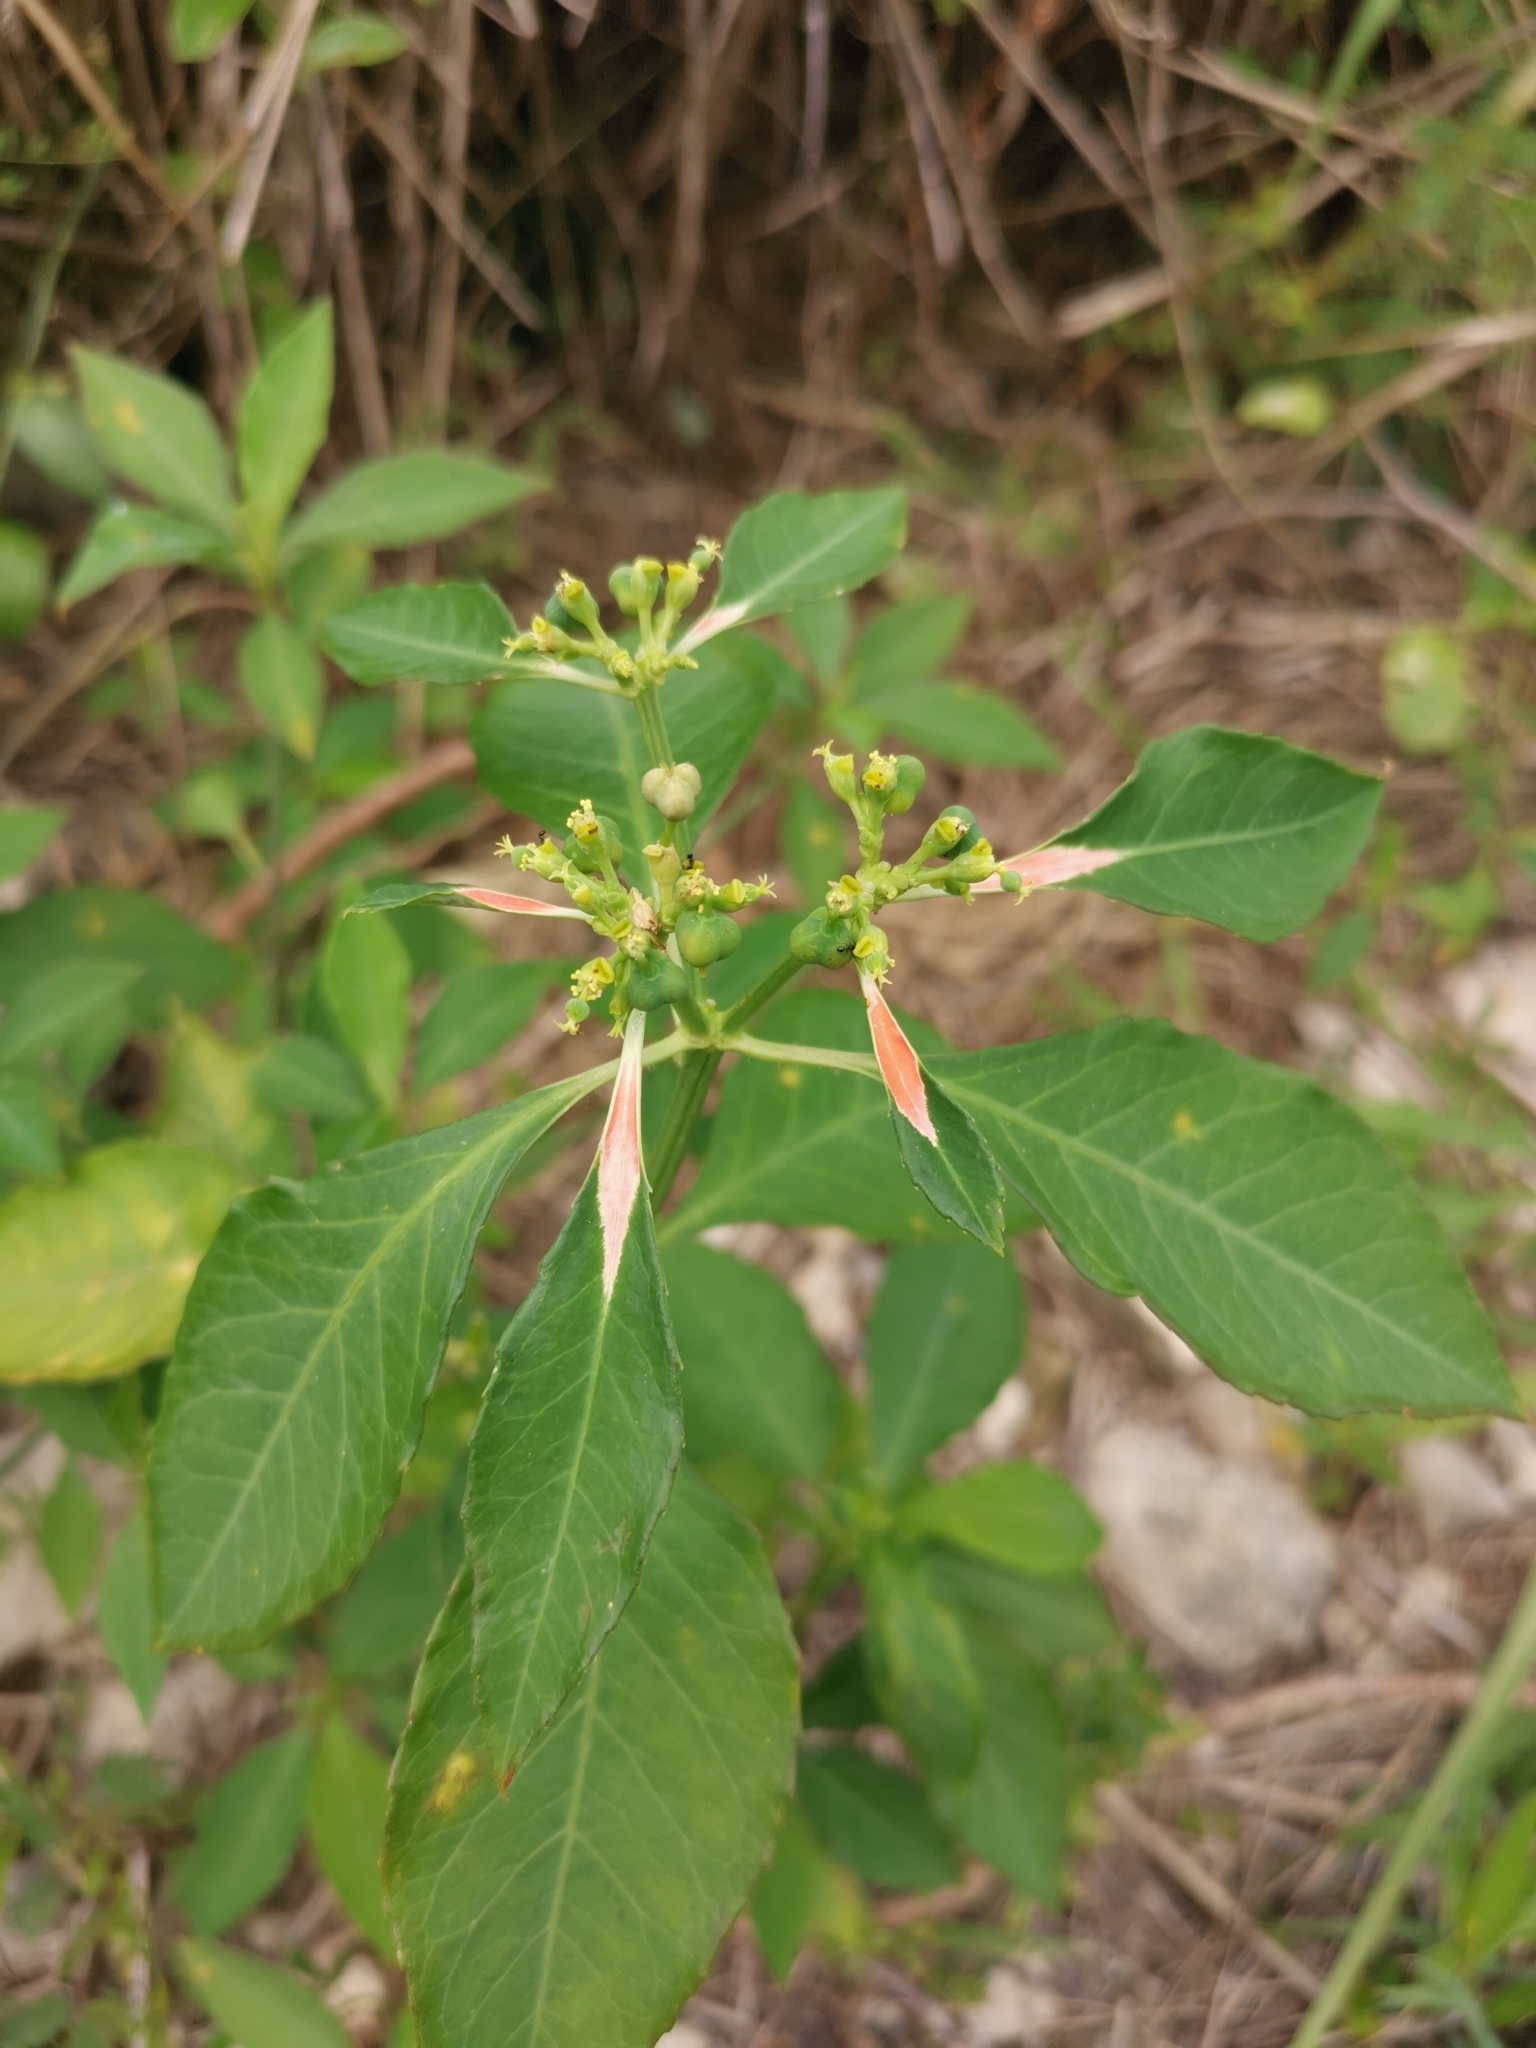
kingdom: Plantae
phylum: Tracheophyta
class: Magnoliopsida
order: Malpighiales
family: Euphorbiaceae
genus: Euphorbia
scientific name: Euphorbia heterophylla
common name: Mexican fireplant
